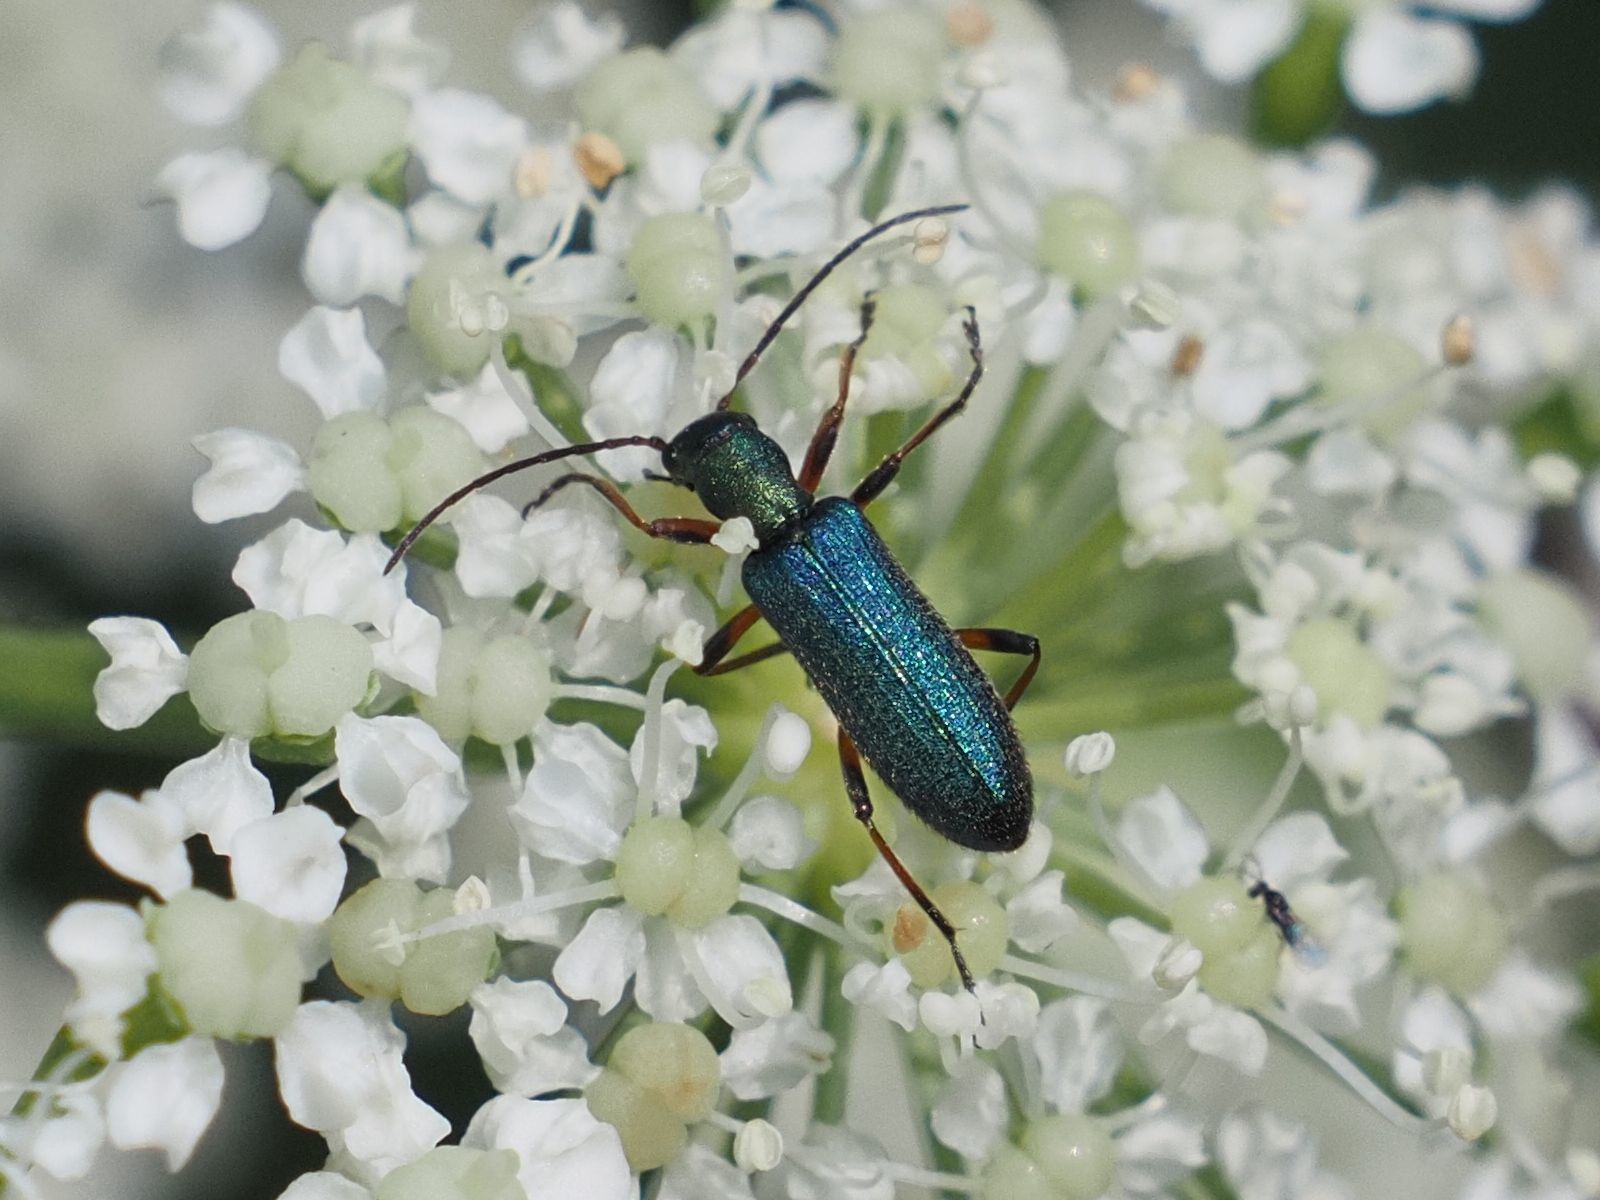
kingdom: Animalia
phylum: Arthropoda
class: Insecta
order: Coleoptera
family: Oedemeridae
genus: Chrysanthia
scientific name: Chrysanthia geniculata
